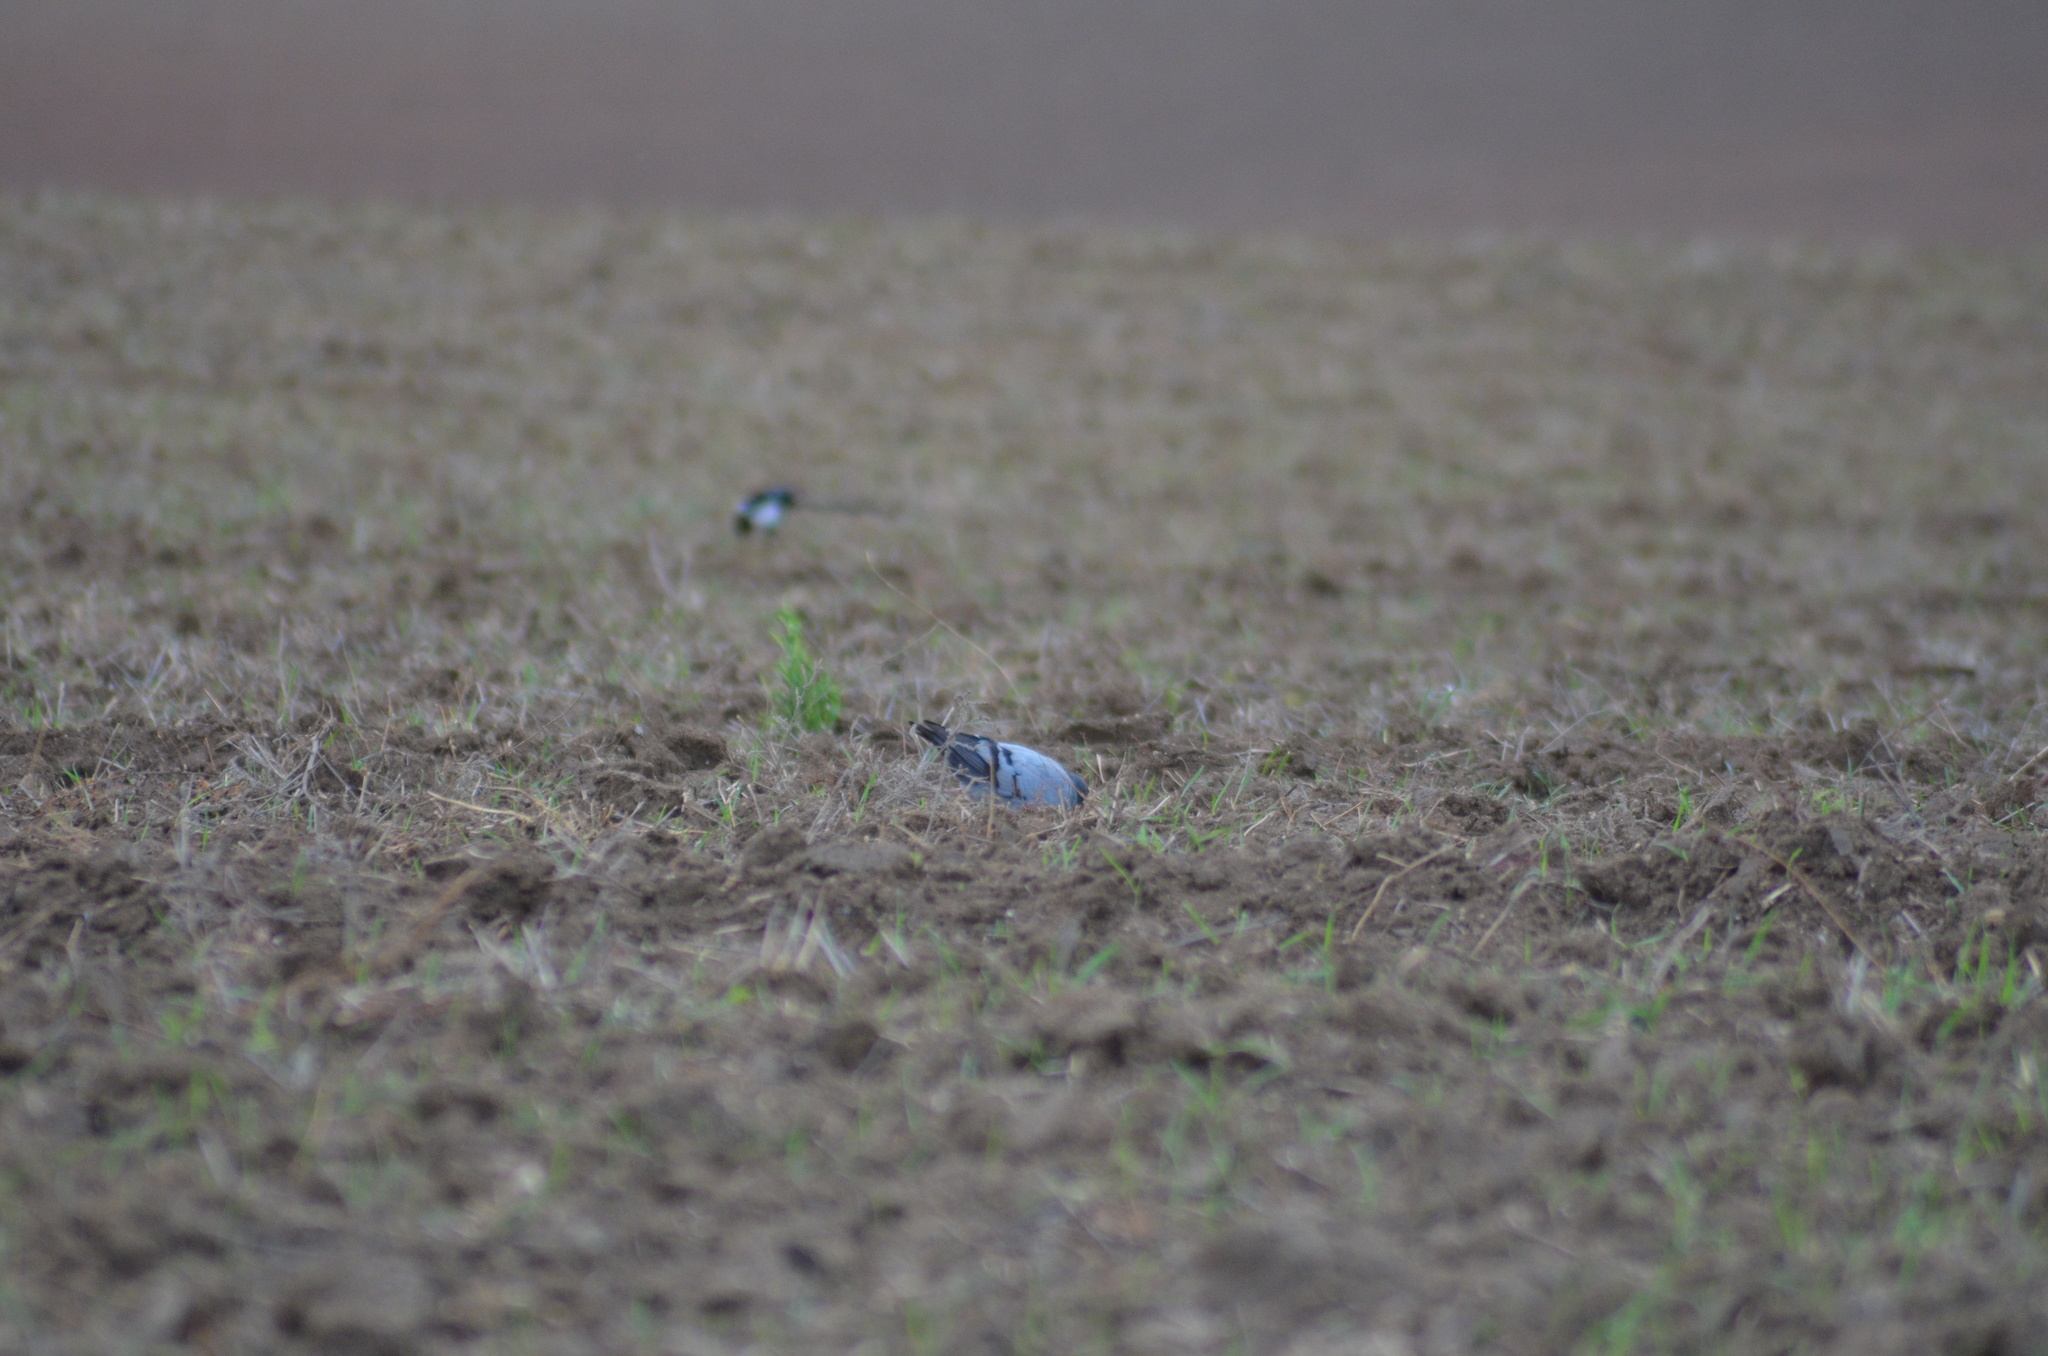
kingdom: Animalia
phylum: Chordata
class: Aves
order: Columbiformes
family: Columbidae
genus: Columba
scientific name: Columba livia
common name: Rock pigeon
